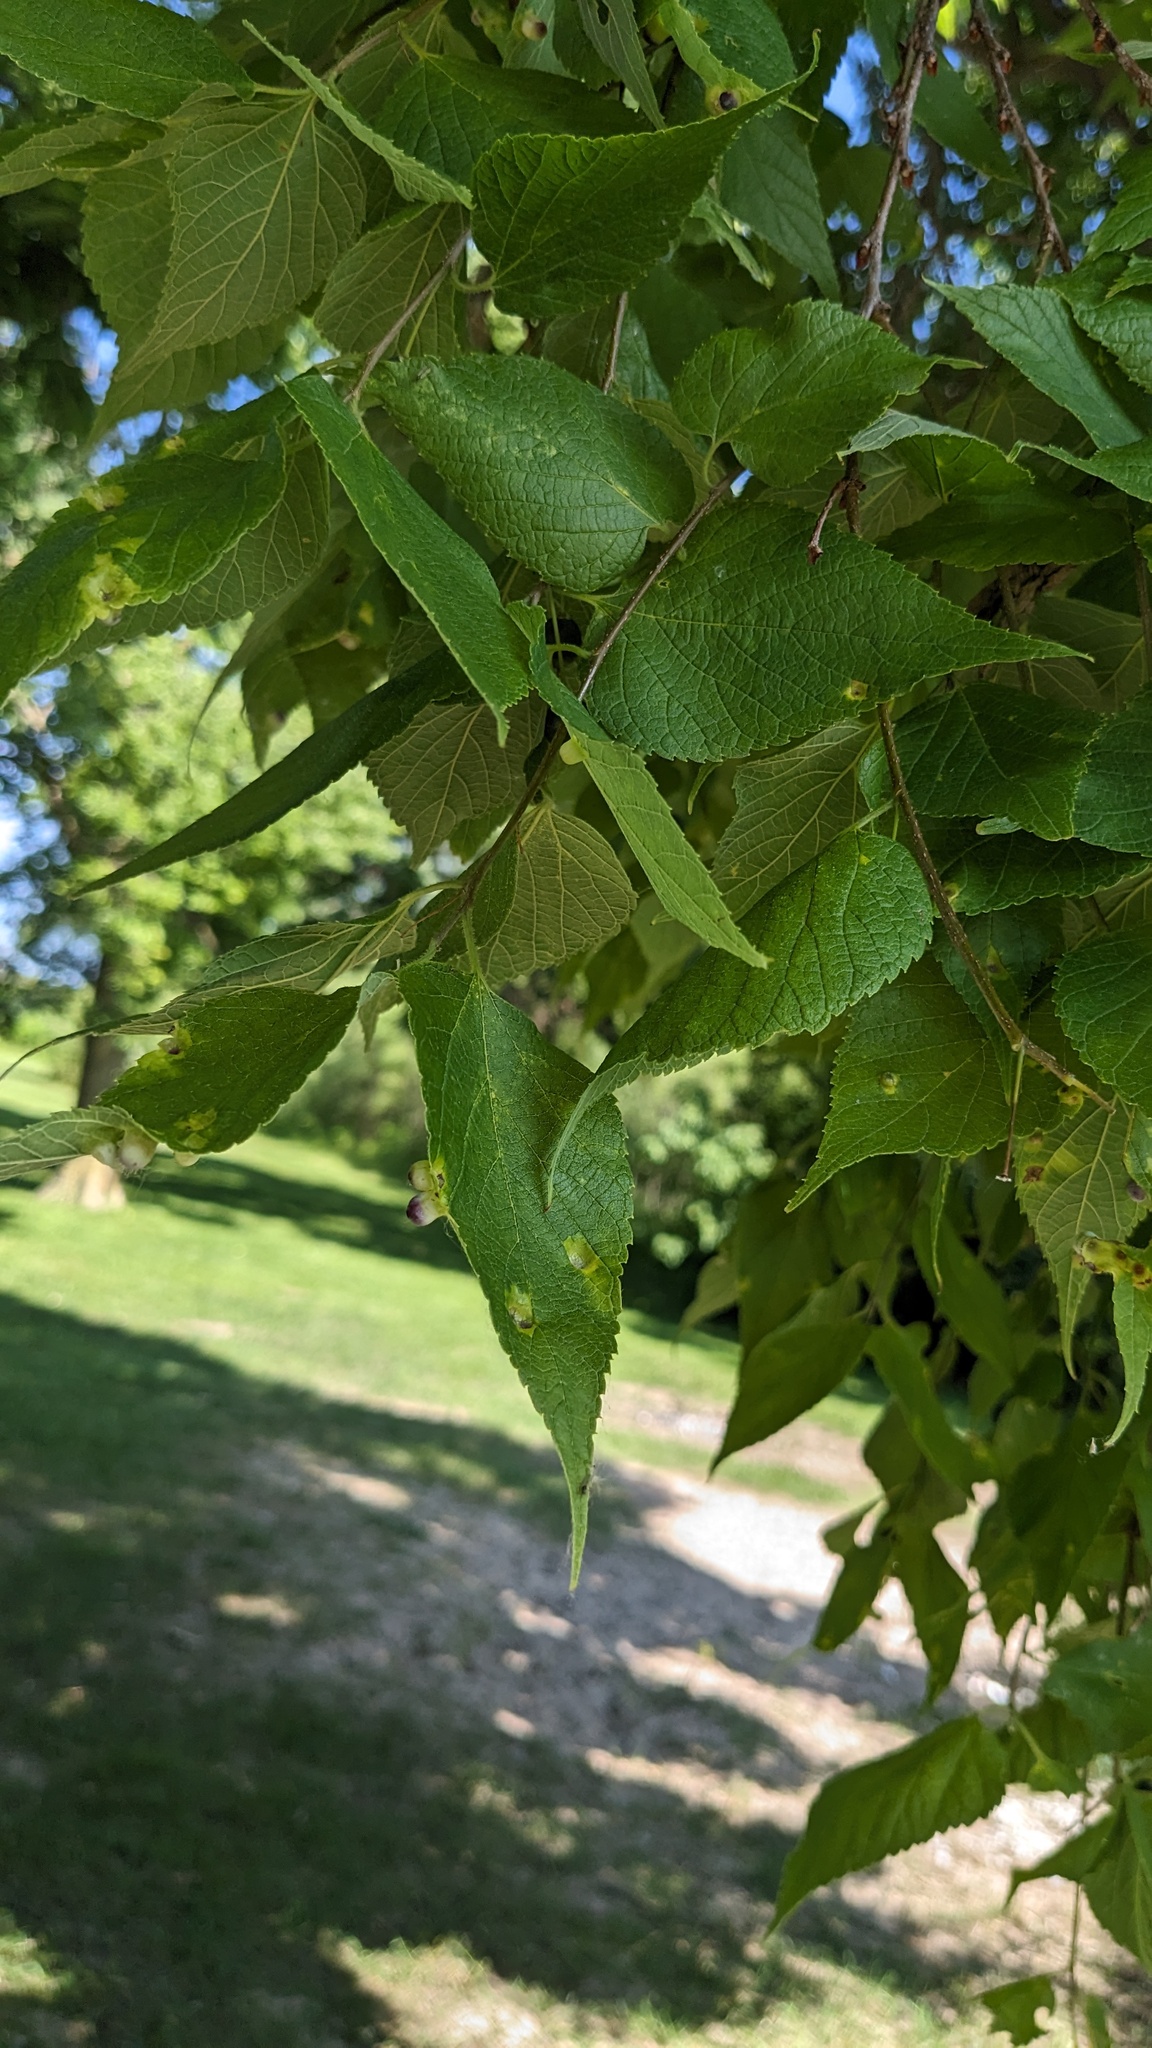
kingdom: Animalia
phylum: Arthropoda
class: Insecta
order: Hemiptera
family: Aphalaridae
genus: Pachypsylla
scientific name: Pachypsylla celtidismamma
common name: Hackberry nipplegall psyllid
